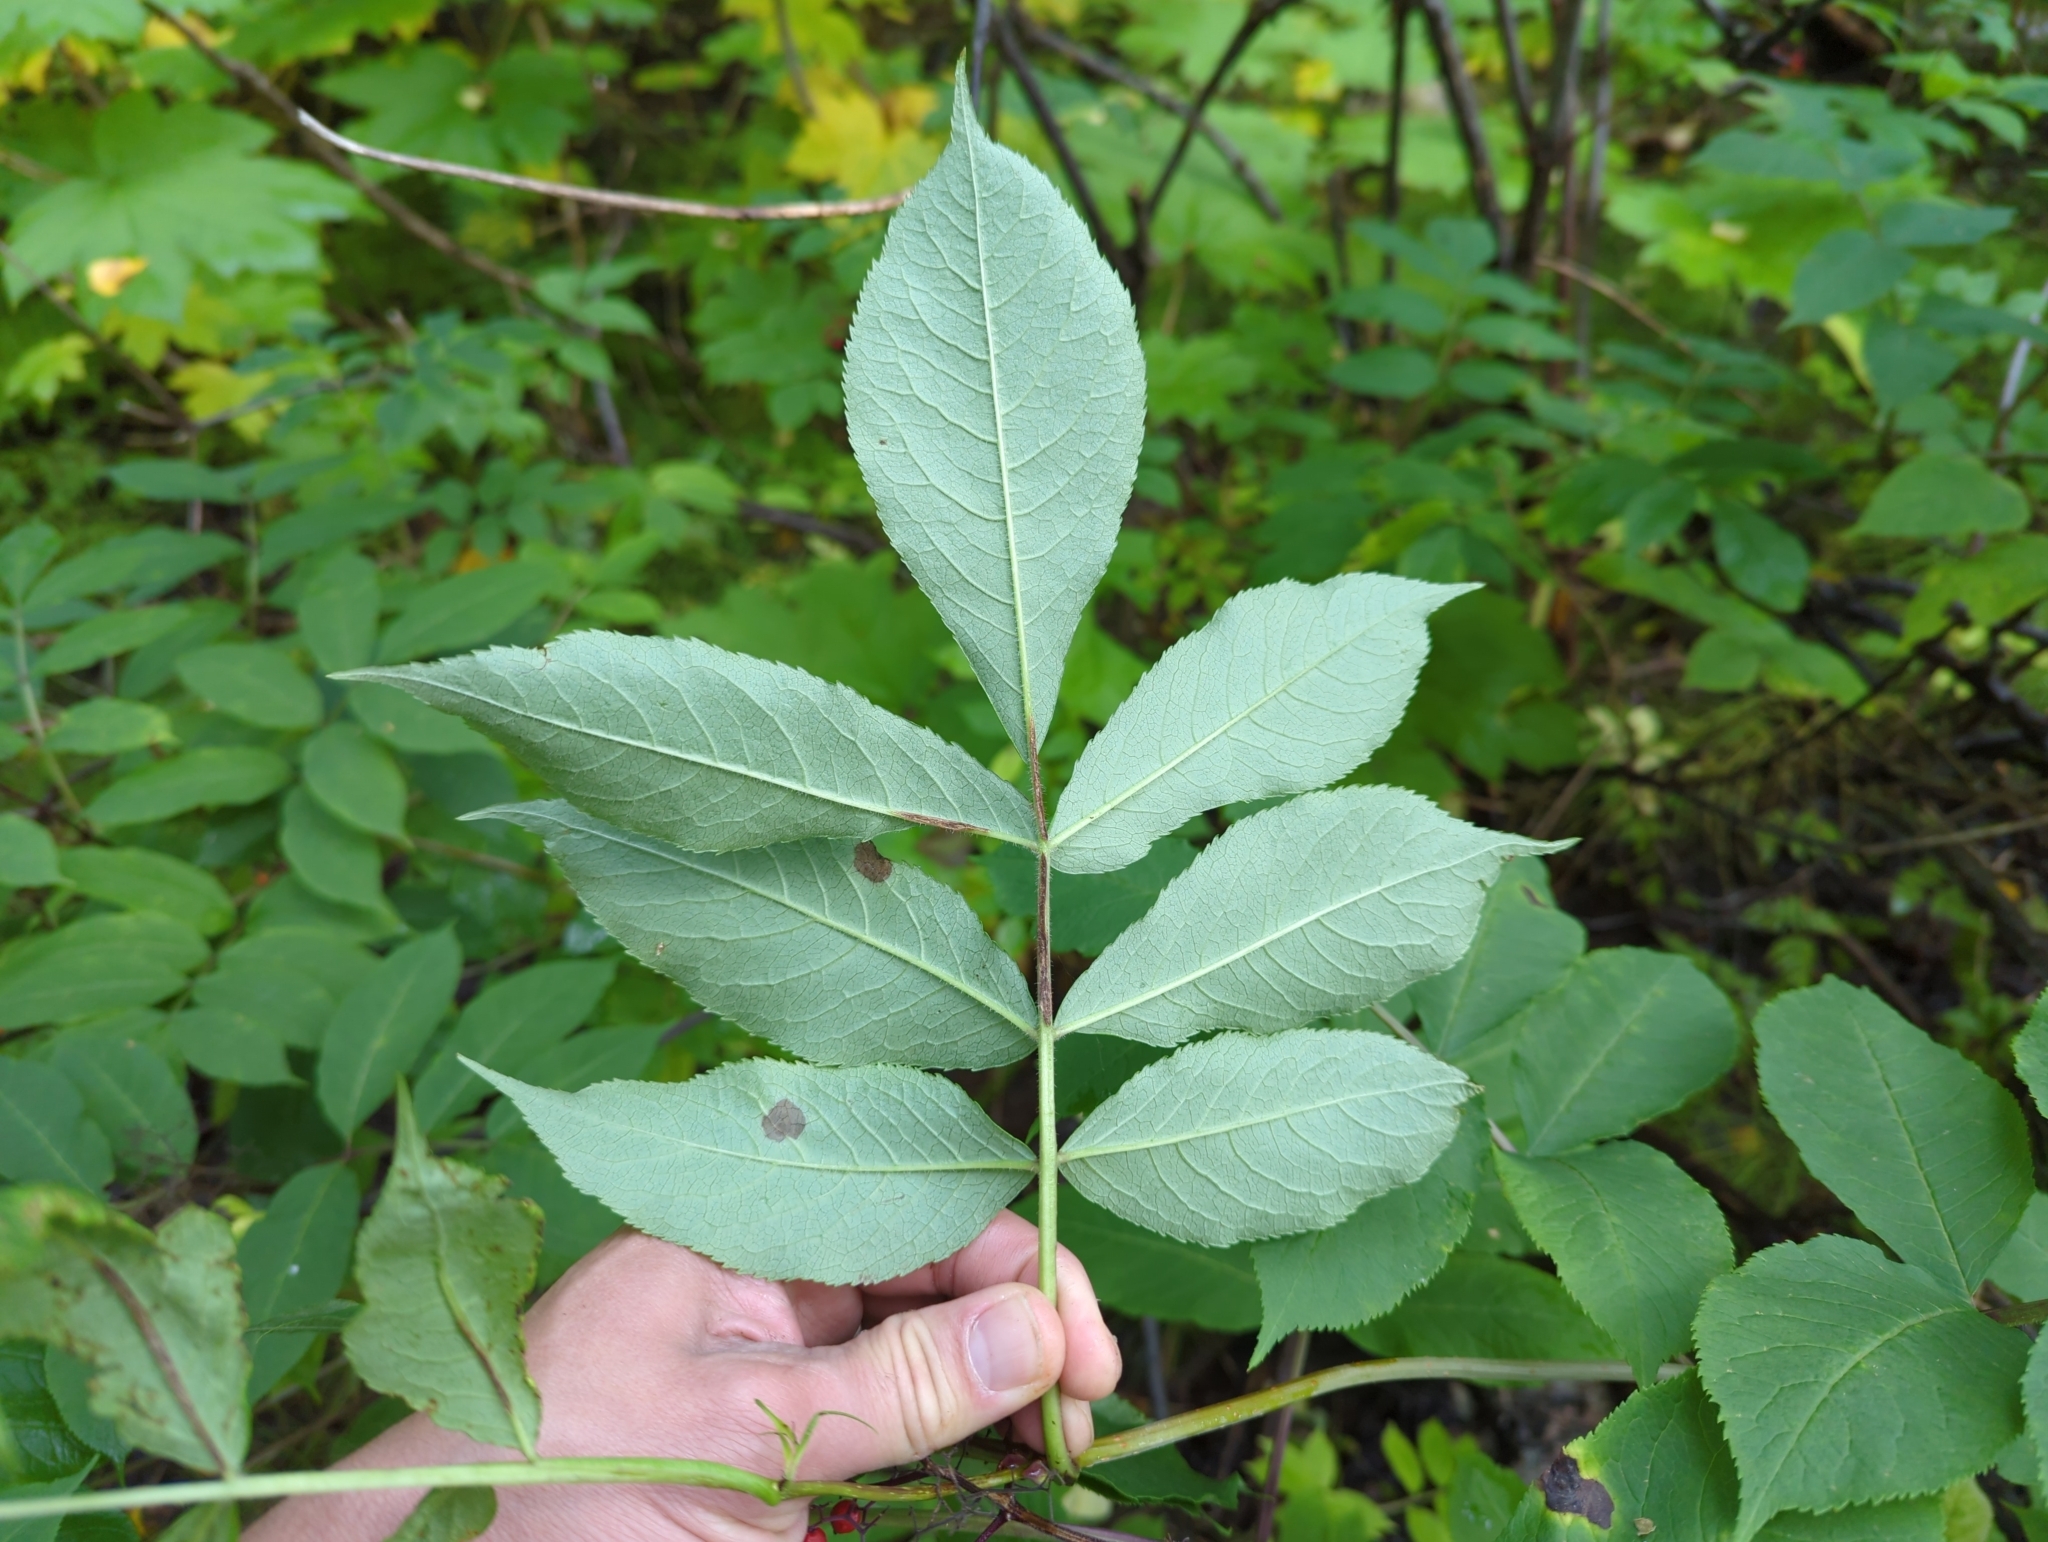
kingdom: Plantae
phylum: Tracheophyta
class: Magnoliopsida
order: Dipsacales
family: Viburnaceae
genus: Sambucus
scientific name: Sambucus racemosa
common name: Red-berried elder
